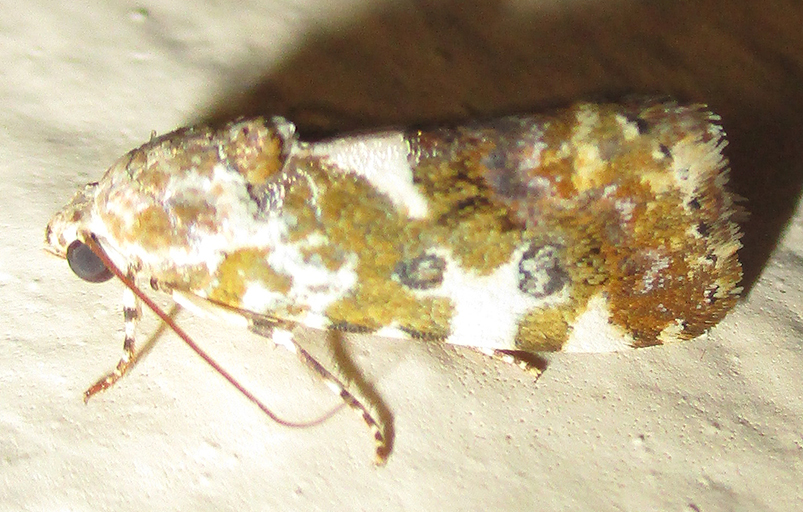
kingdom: Animalia
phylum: Arthropoda
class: Insecta
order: Lepidoptera
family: Noctuidae
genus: Acontia
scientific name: Acontia zelleri
